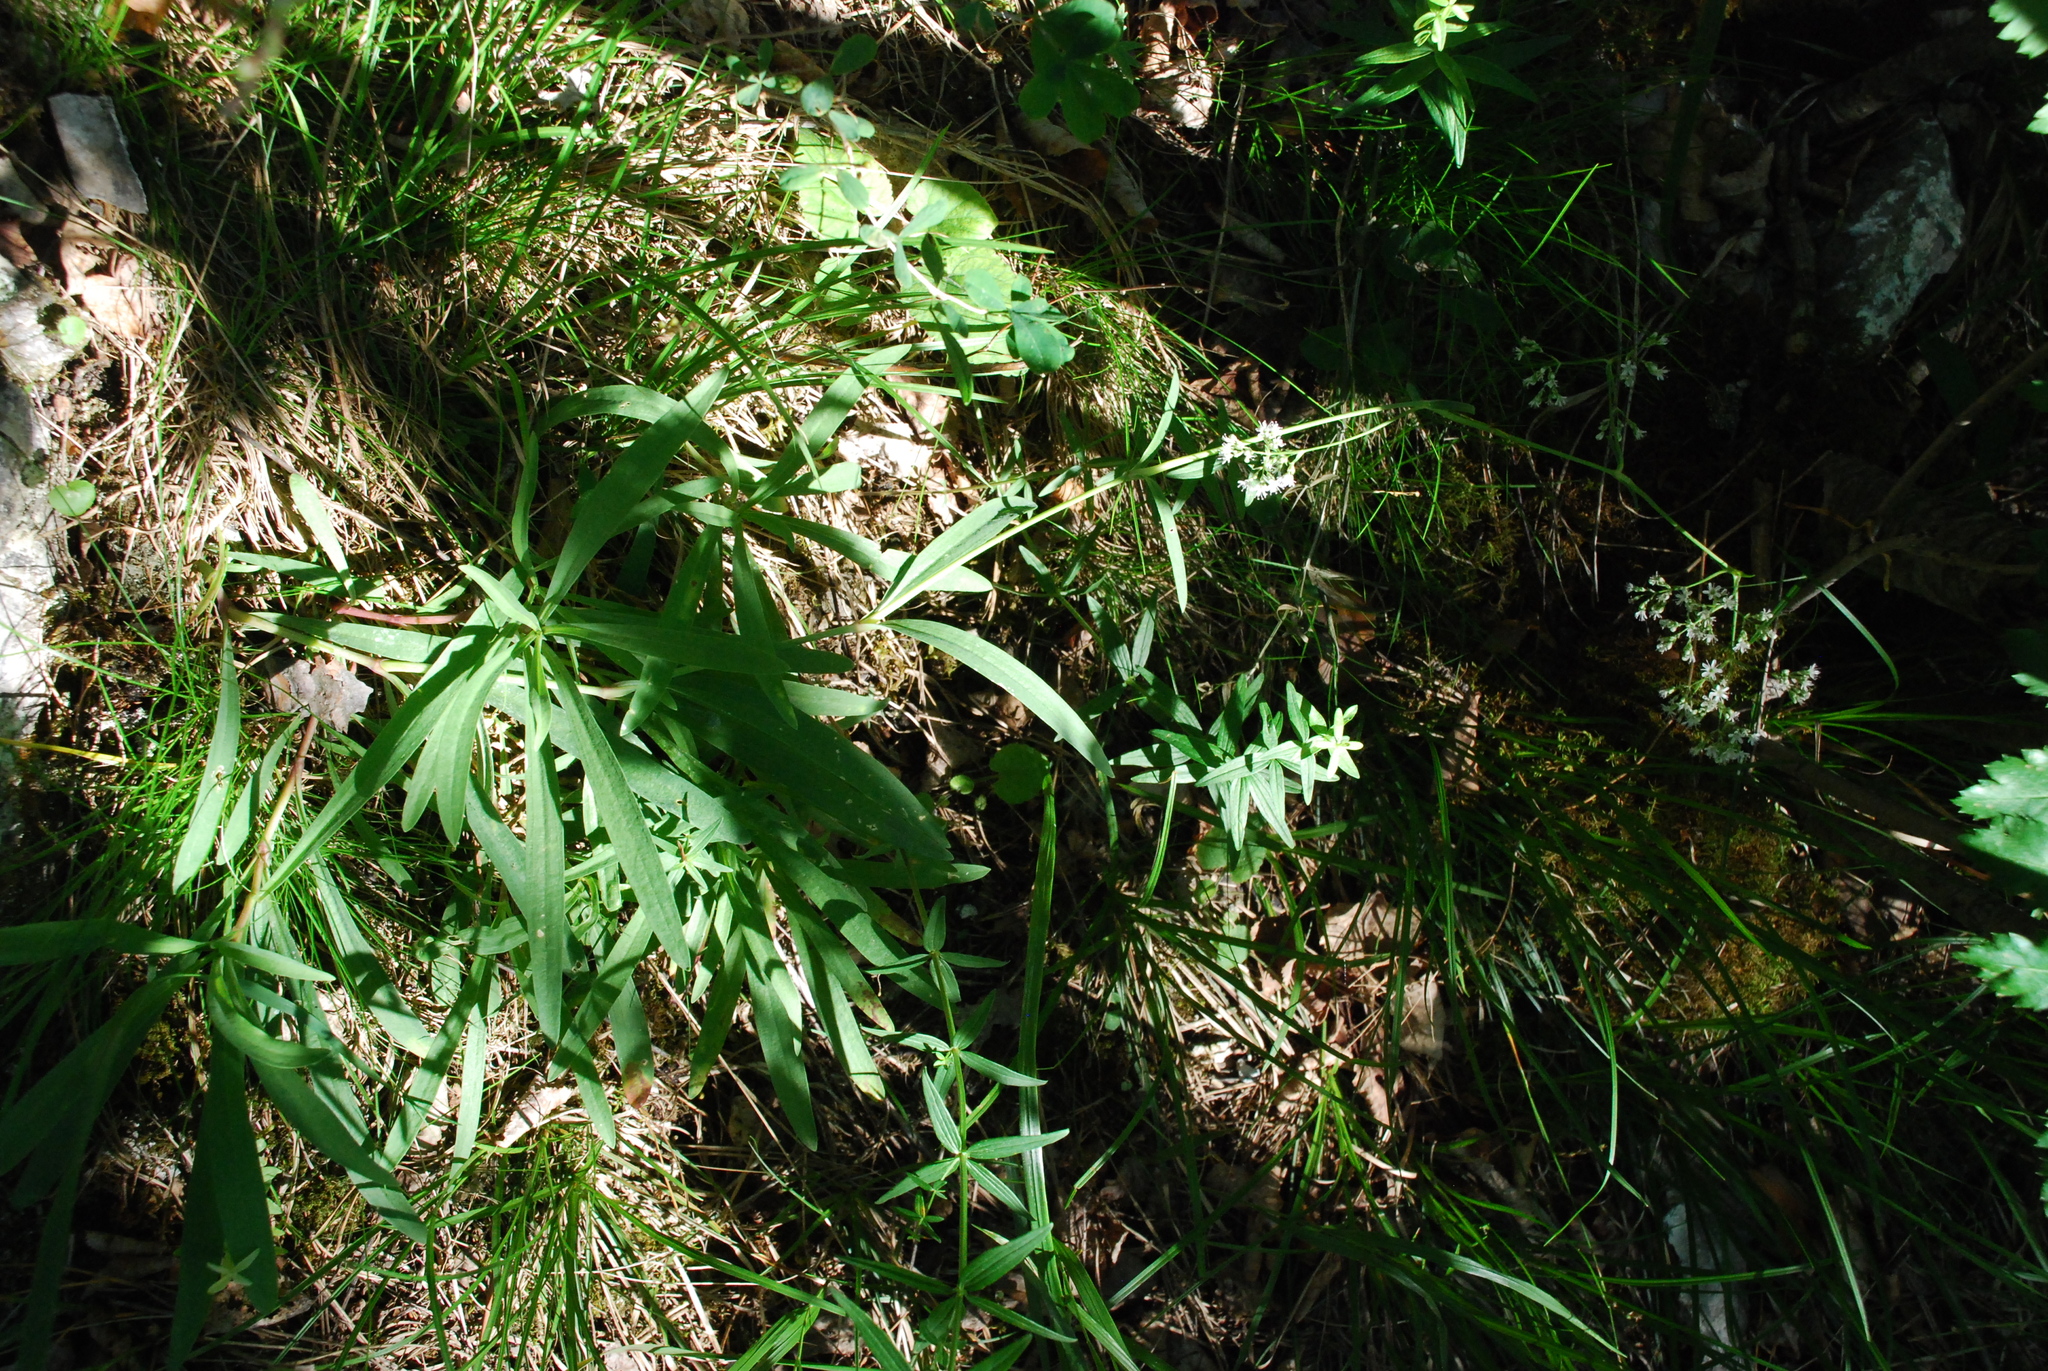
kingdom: Plantae
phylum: Tracheophyta
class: Magnoliopsida
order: Caryophyllales
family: Caryophyllaceae
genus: Gypsophila
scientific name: Gypsophila altissima
